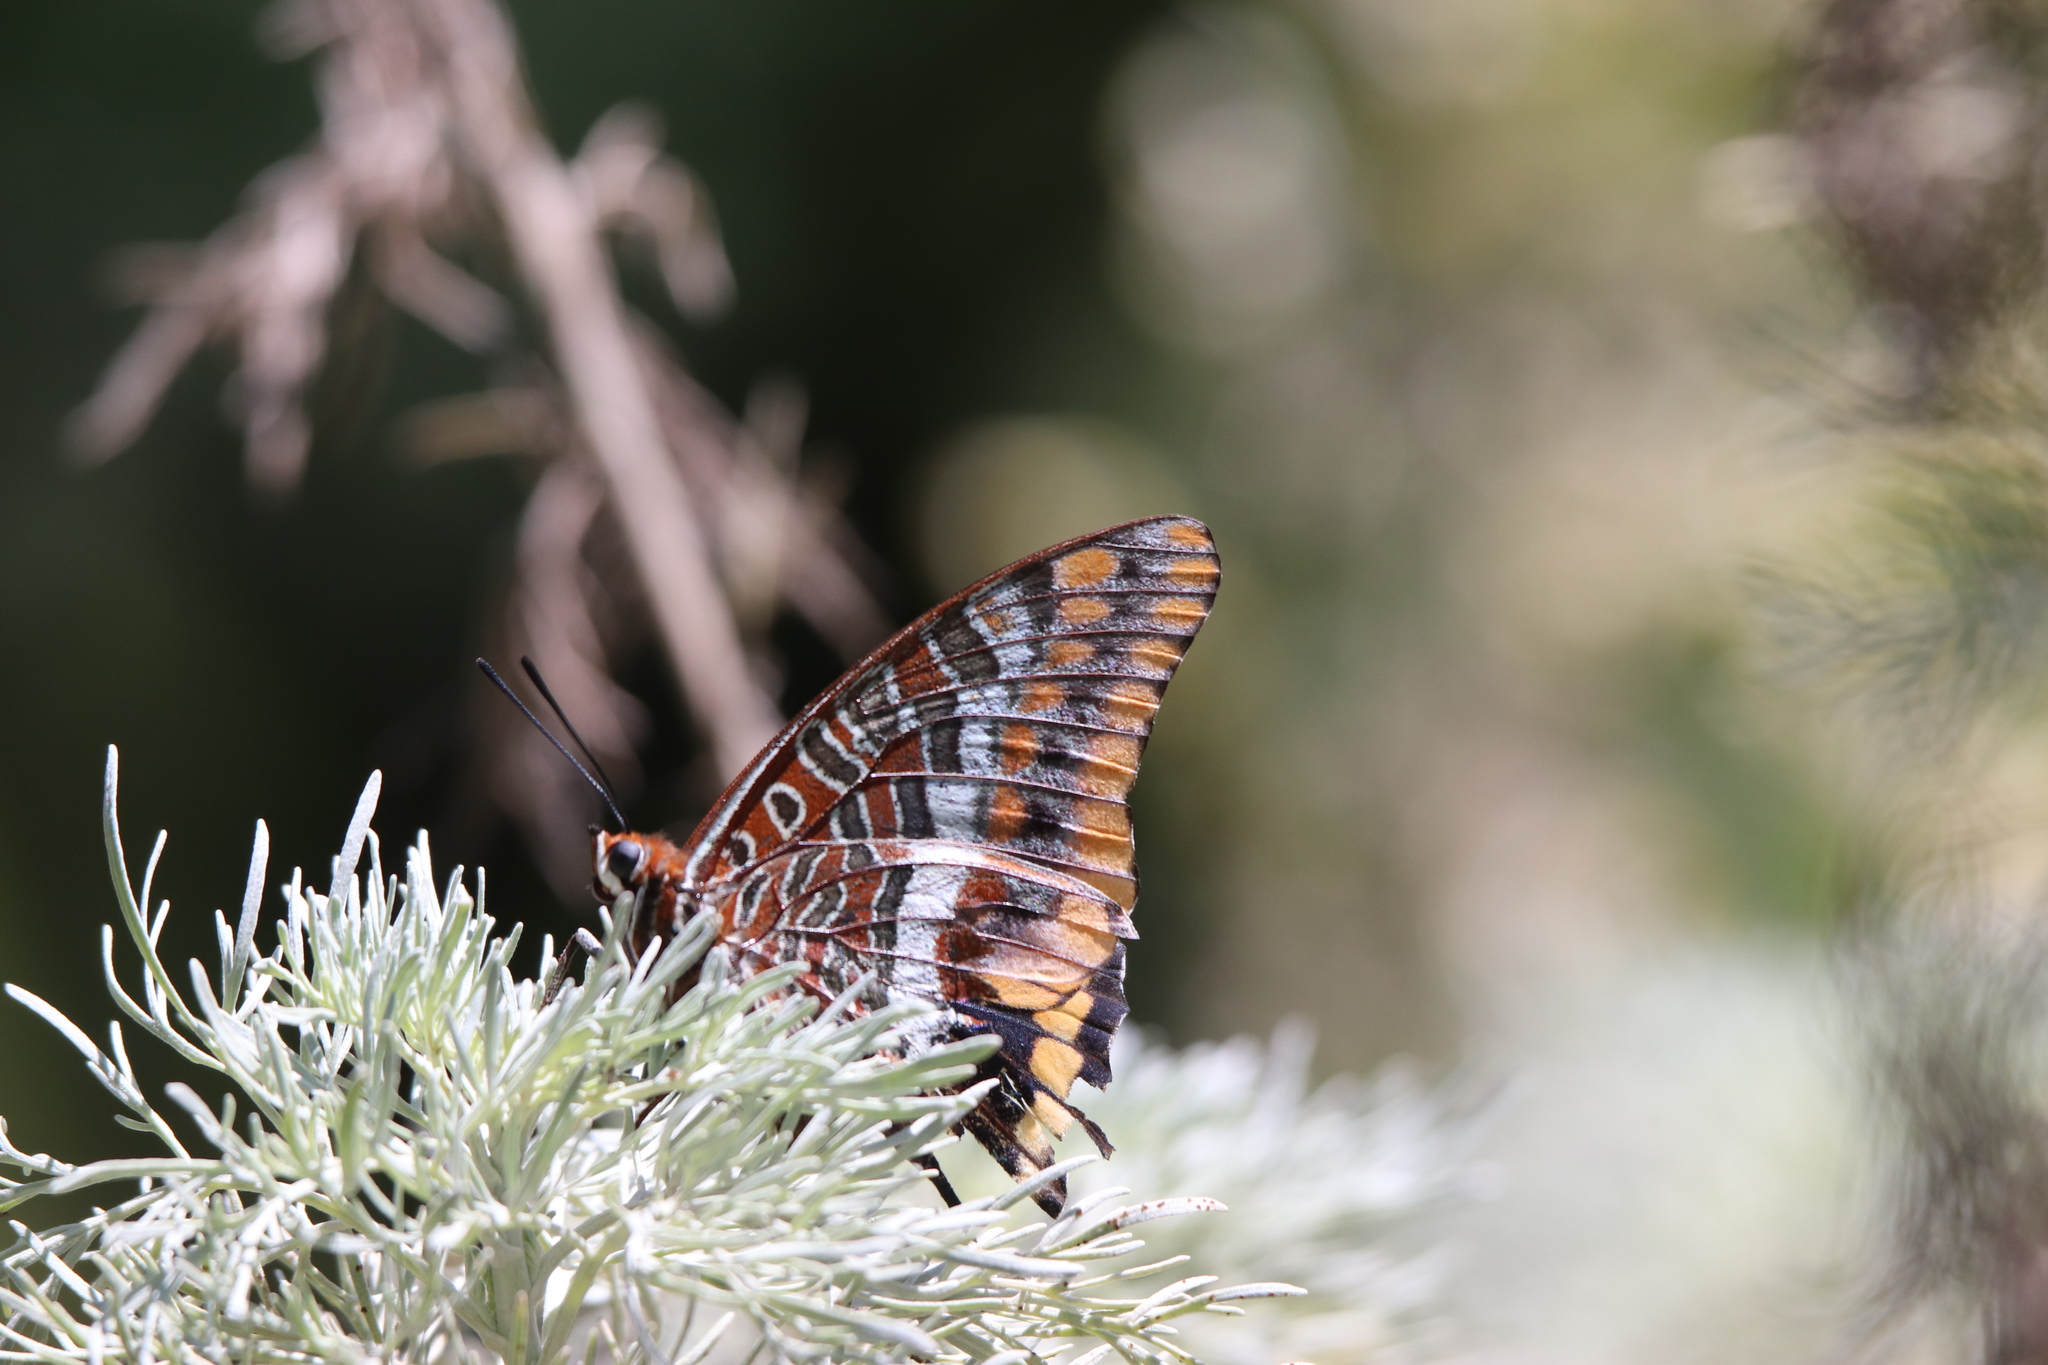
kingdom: Animalia
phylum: Arthropoda
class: Insecta
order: Lepidoptera
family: Nymphalidae
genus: Charaxes
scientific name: Charaxes jasius
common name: Two tailed pasha
